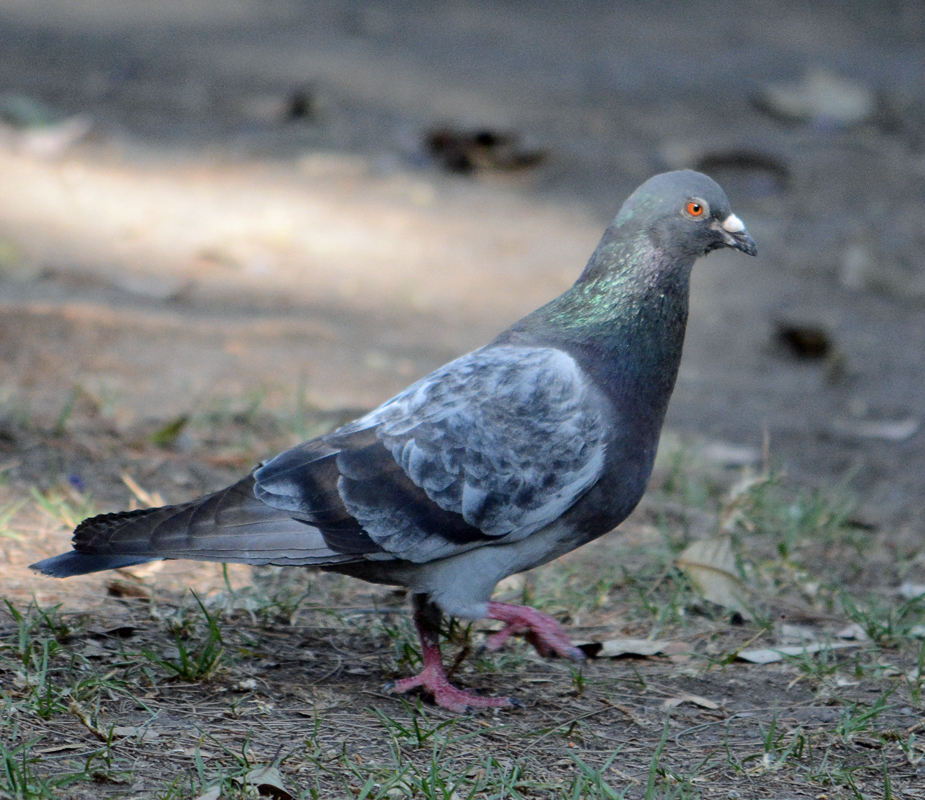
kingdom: Animalia
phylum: Chordata
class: Aves
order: Columbiformes
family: Columbidae
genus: Columba
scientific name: Columba livia
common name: Rock pigeon
